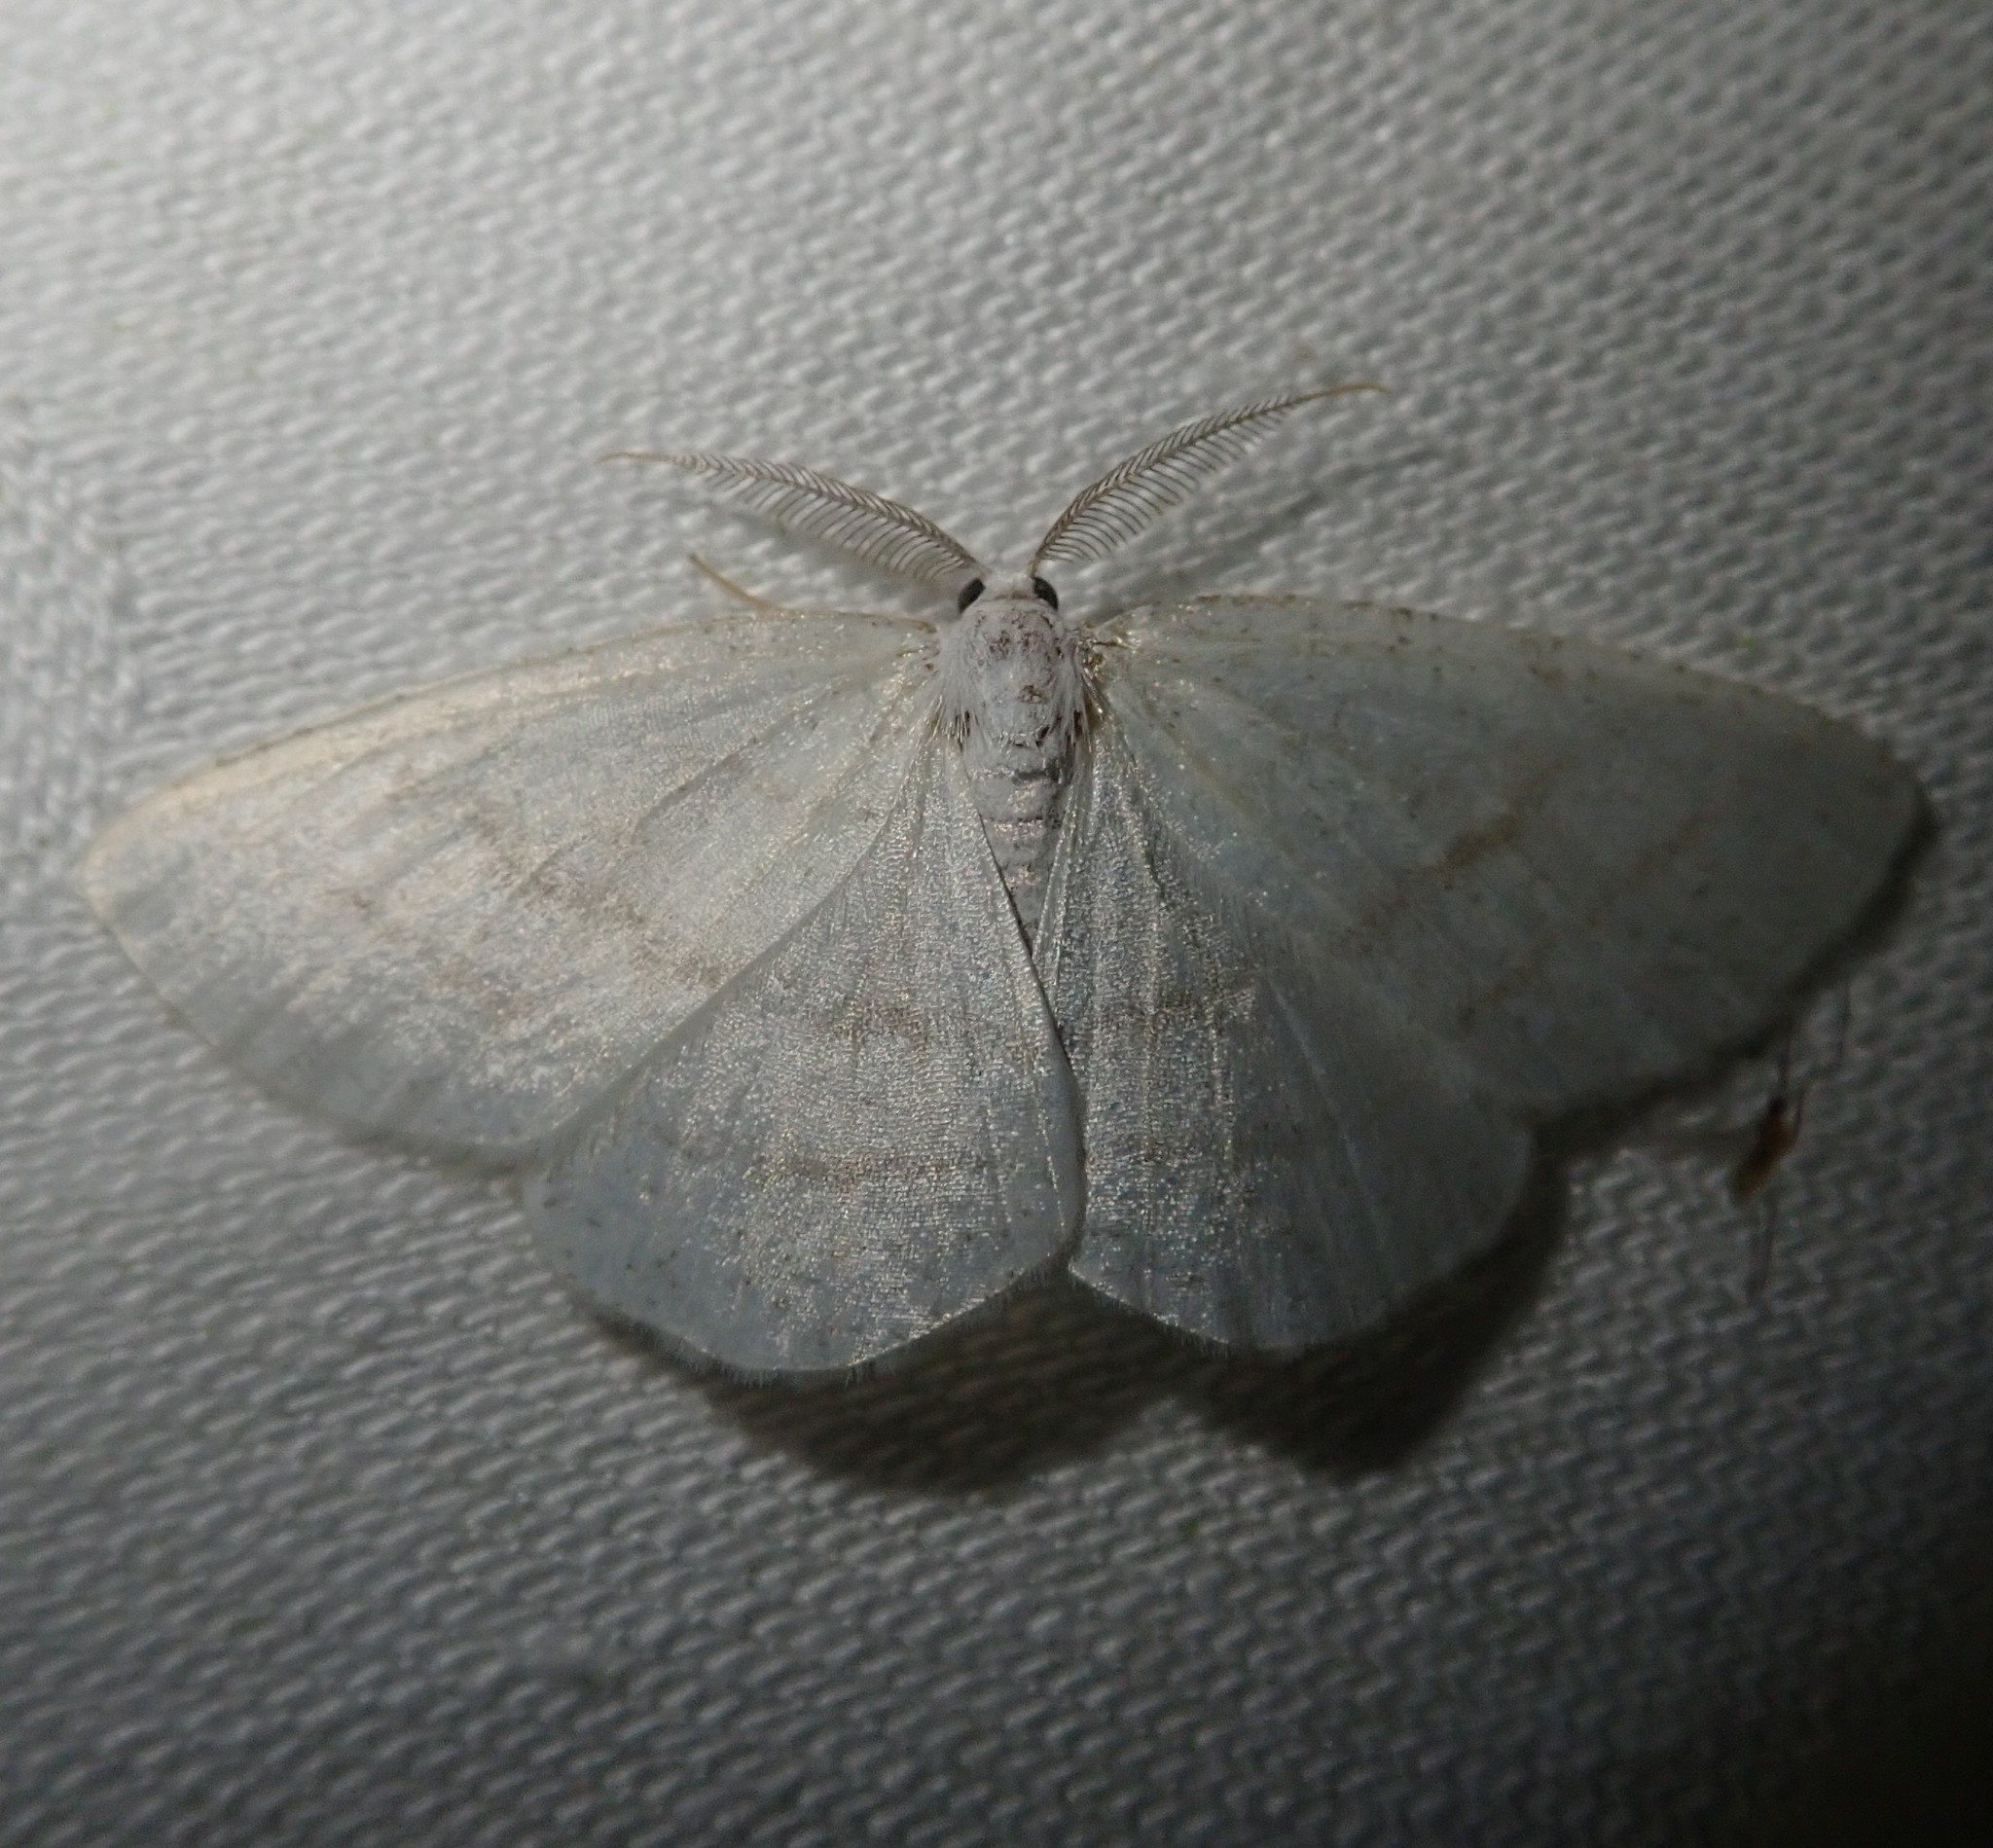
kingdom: Animalia
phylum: Arthropoda
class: Insecta
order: Lepidoptera
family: Geometridae
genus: Cabera
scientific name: Cabera pusaria
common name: Common white wave
